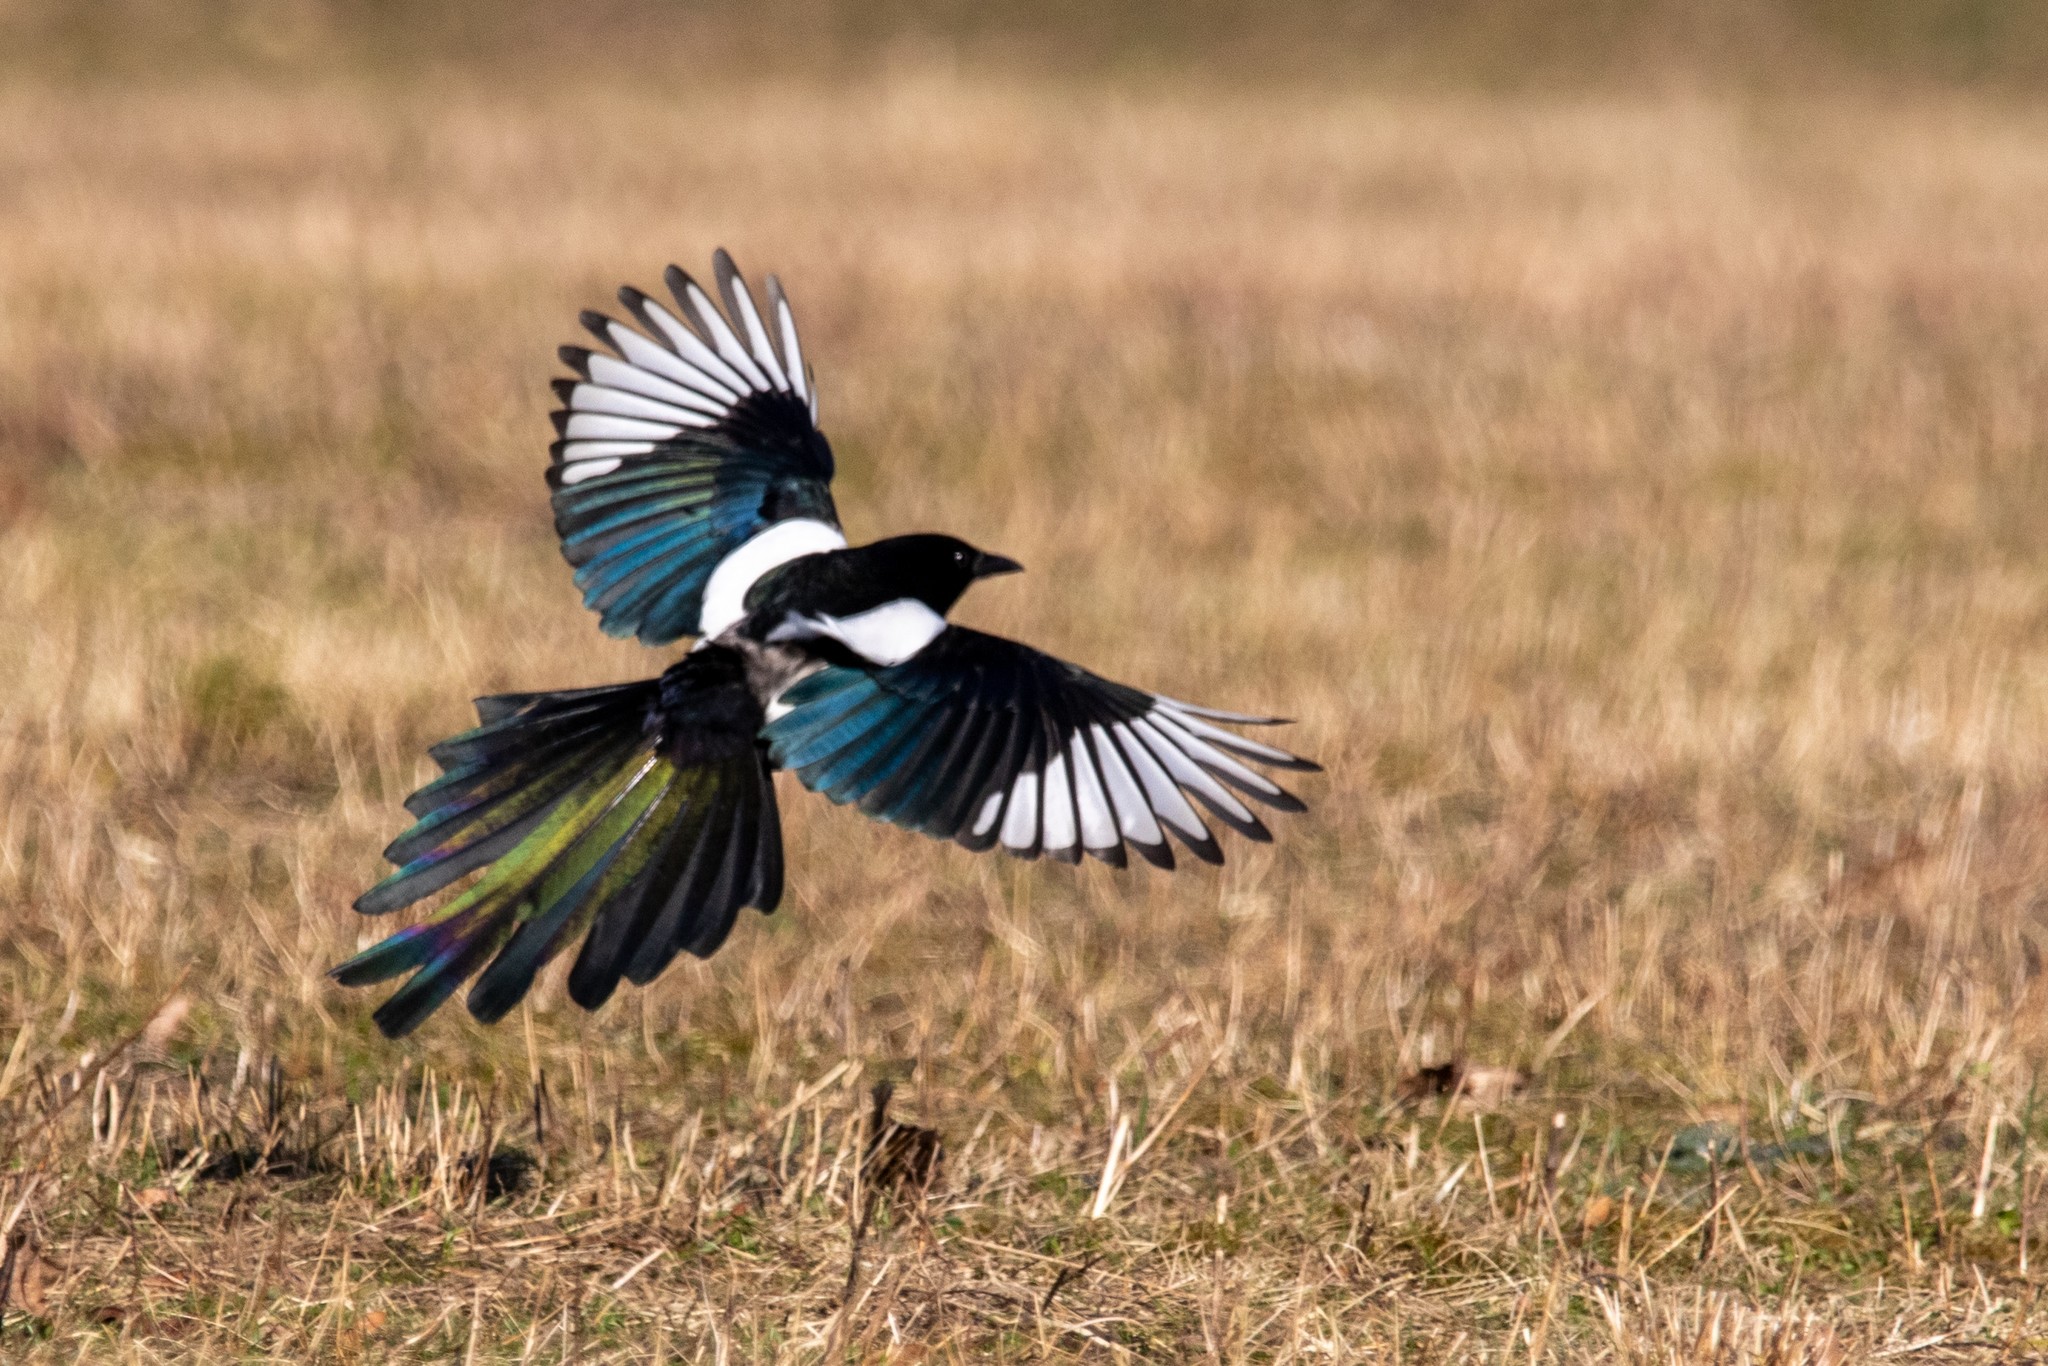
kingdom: Animalia
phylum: Chordata
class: Aves
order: Passeriformes
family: Corvidae
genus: Pica
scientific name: Pica pica
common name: Eurasian magpie
